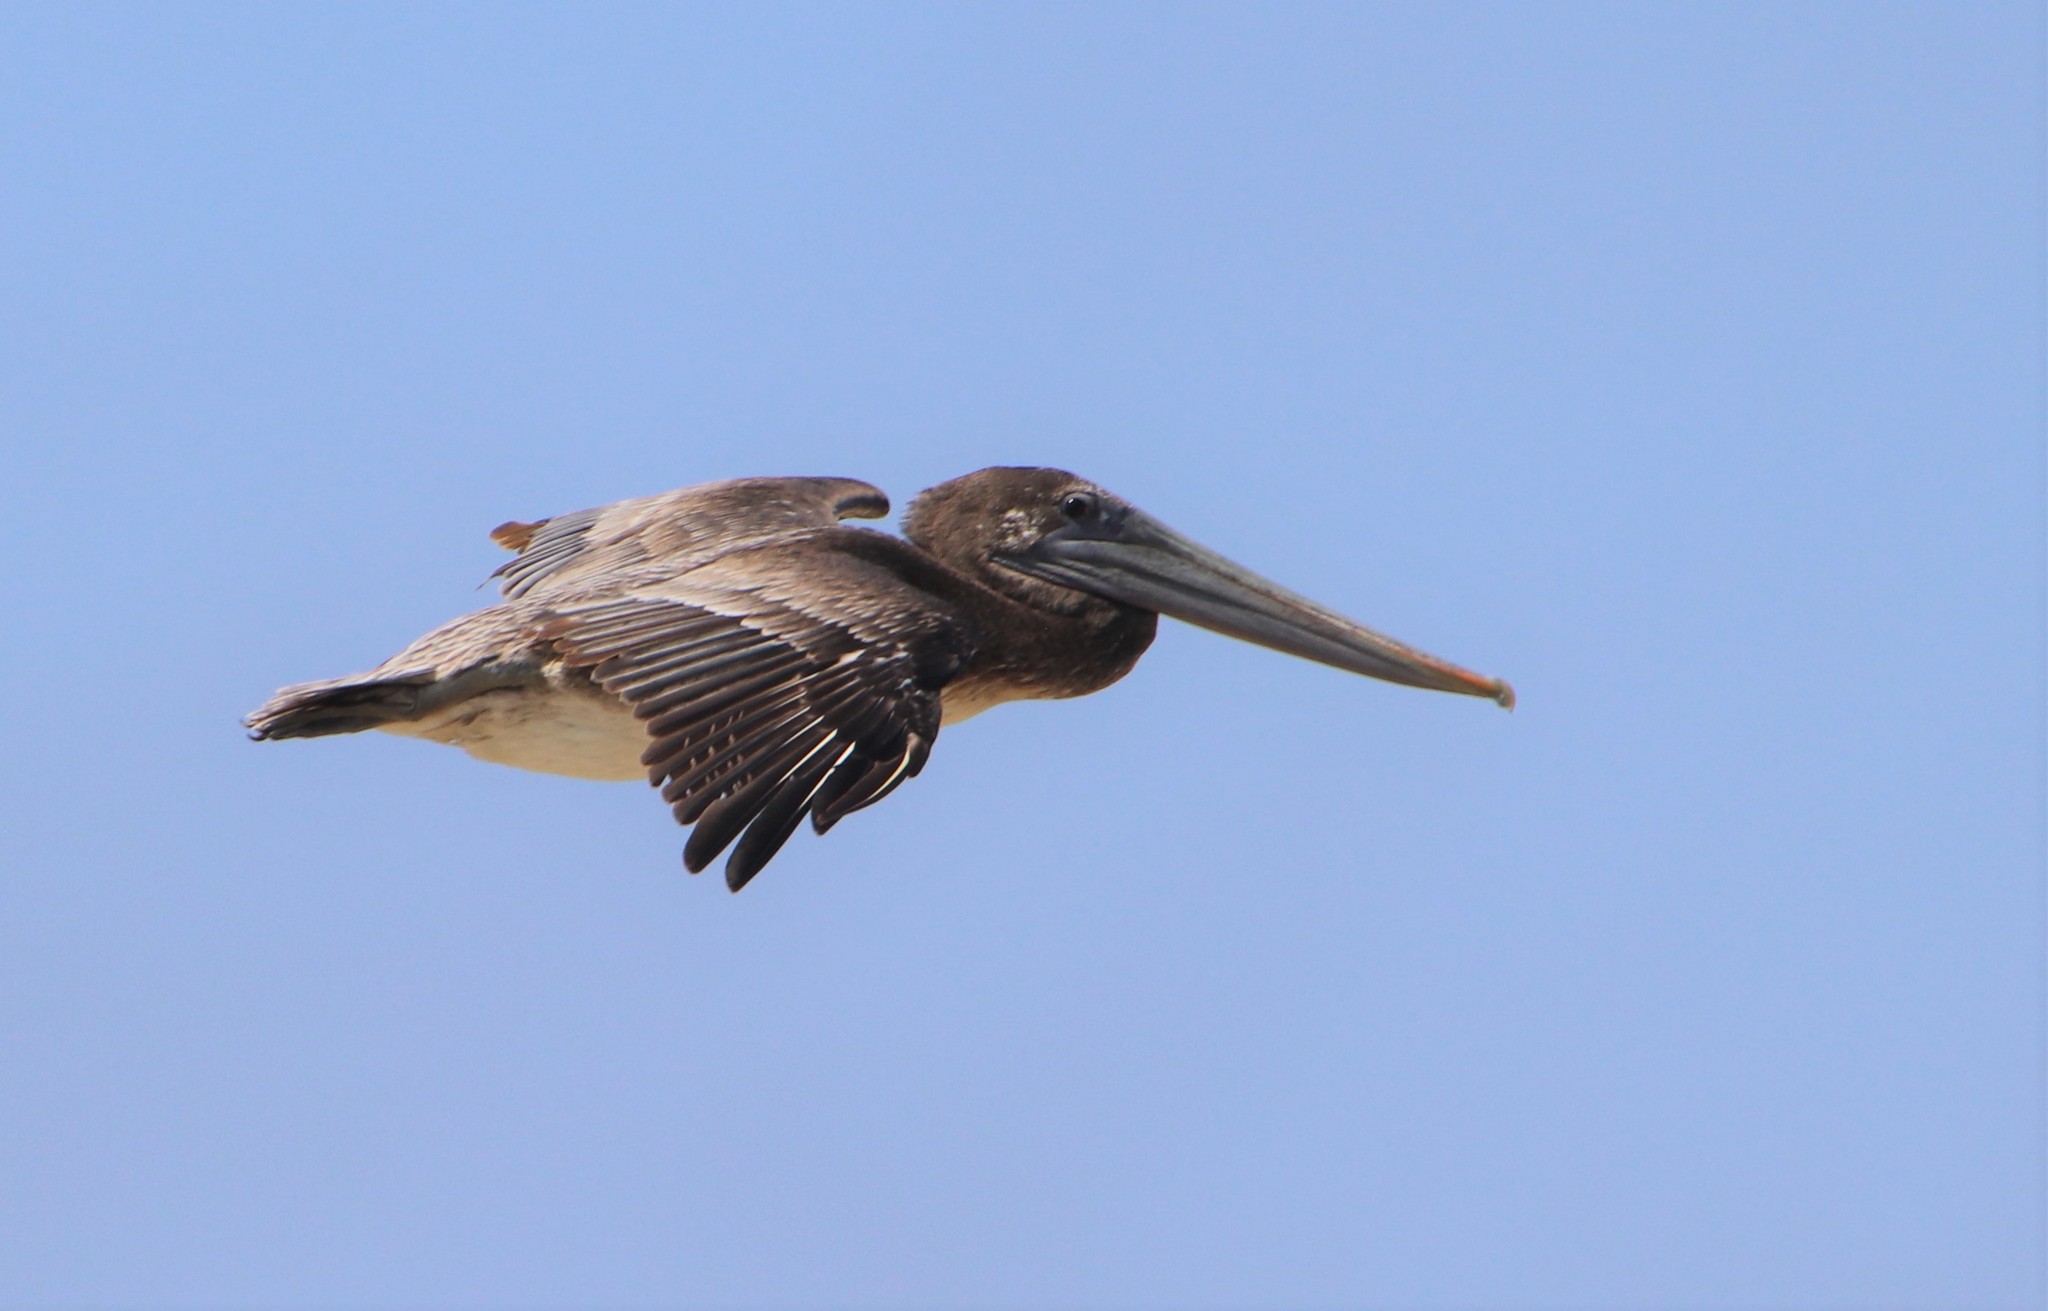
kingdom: Animalia
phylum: Chordata
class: Aves
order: Pelecaniformes
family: Pelecanidae
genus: Pelecanus
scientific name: Pelecanus occidentalis
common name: Brown pelican
